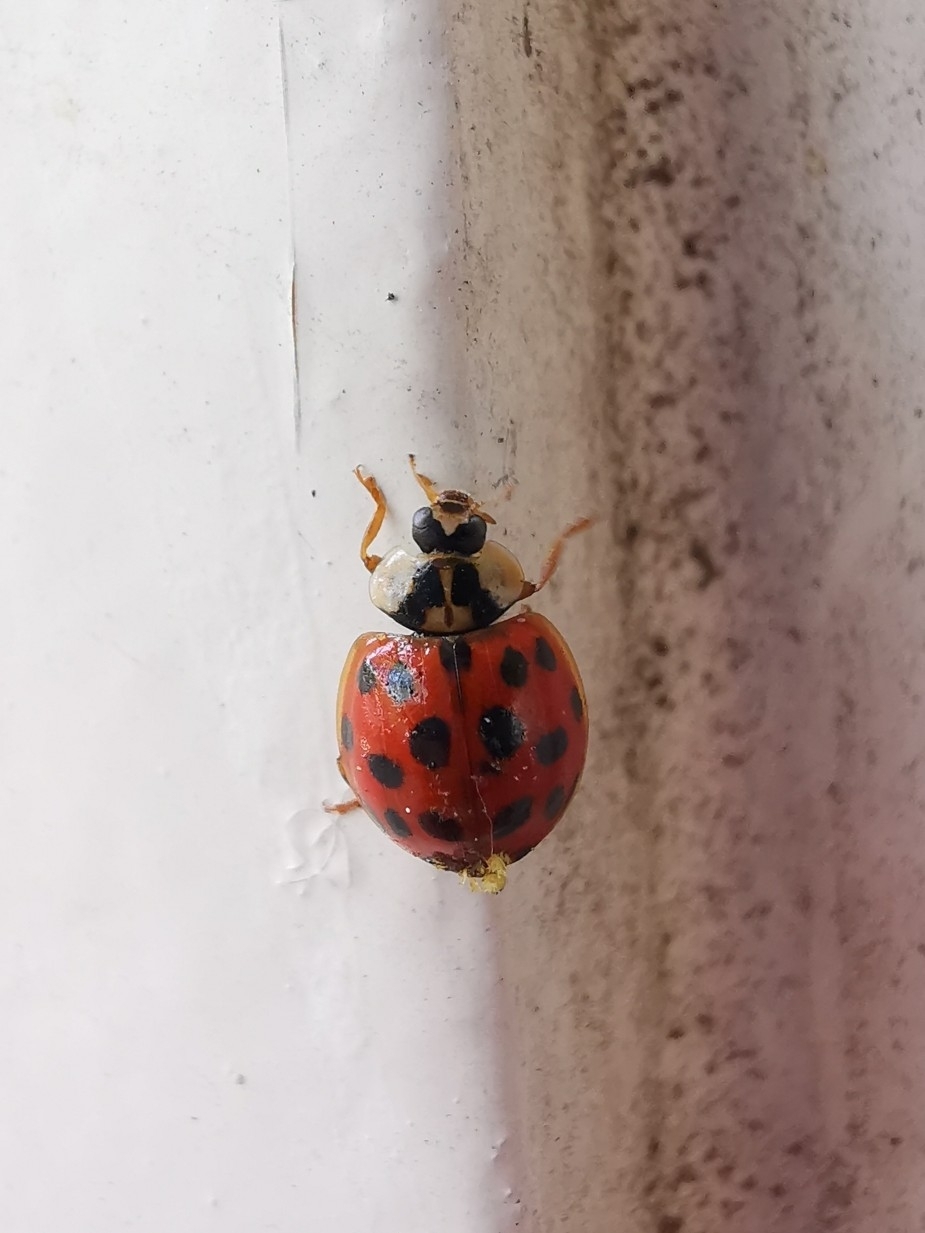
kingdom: Animalia
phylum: Arthropoda
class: Insecta
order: Coleoptera
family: Coccinellidae
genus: Harmonia
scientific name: Harmonia axyridis
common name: Harlequin ladybird
